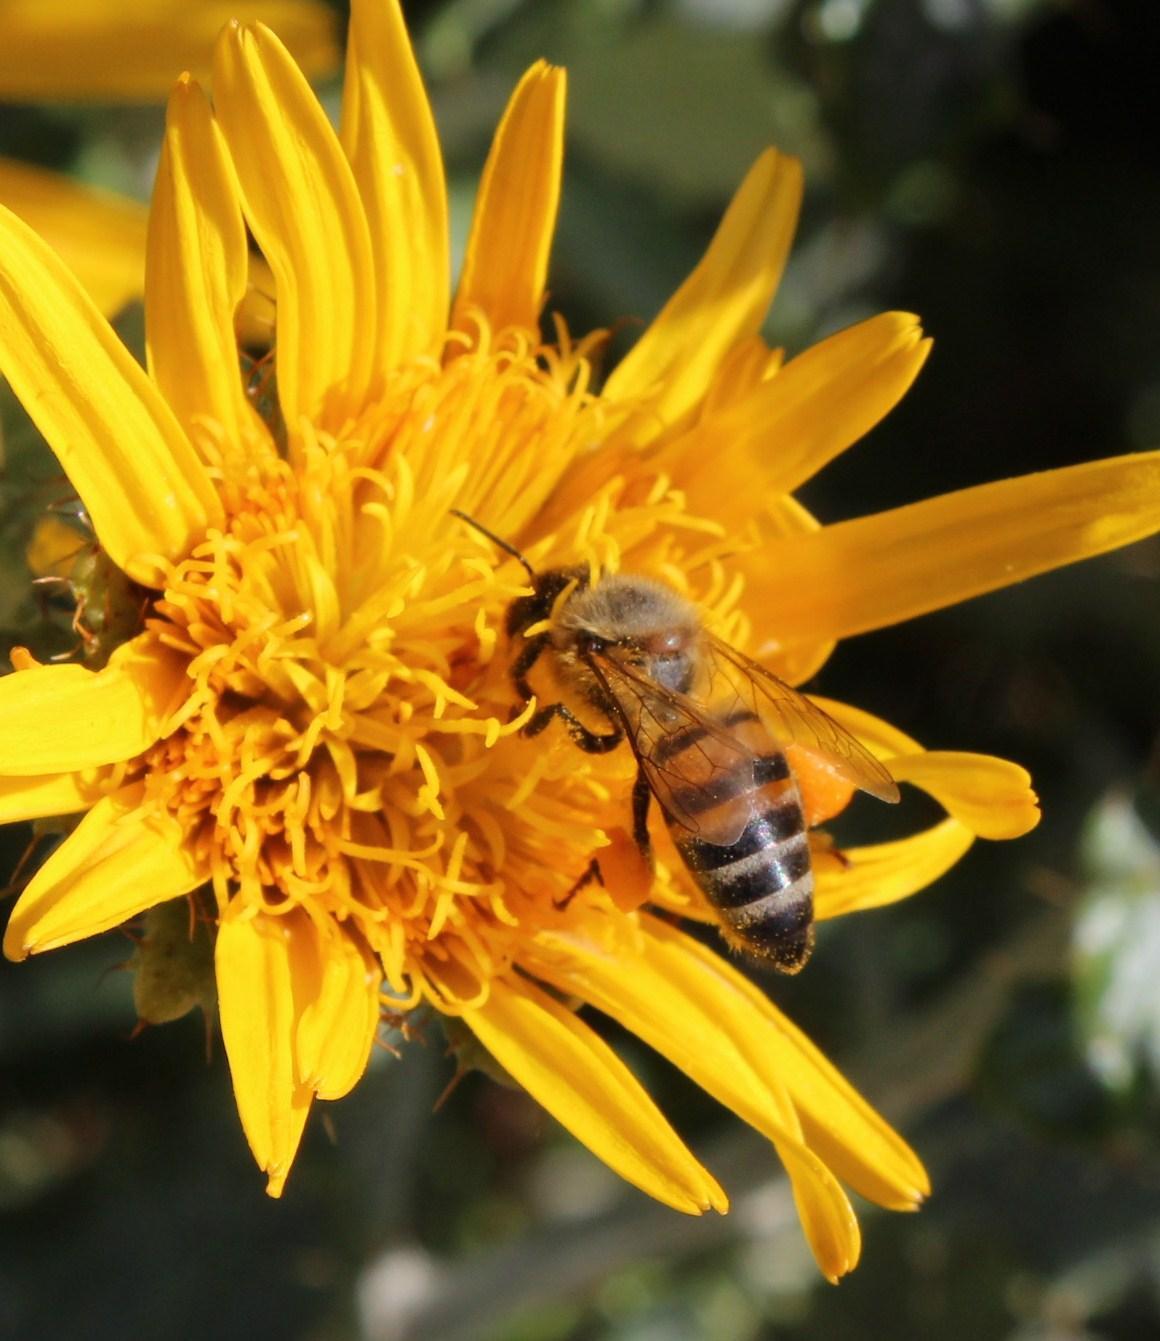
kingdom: Animalia
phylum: Arthropoda
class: Insecta
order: Hymenoptera
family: Apidae
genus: Apis
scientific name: Apis mellifera
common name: Honey bee
